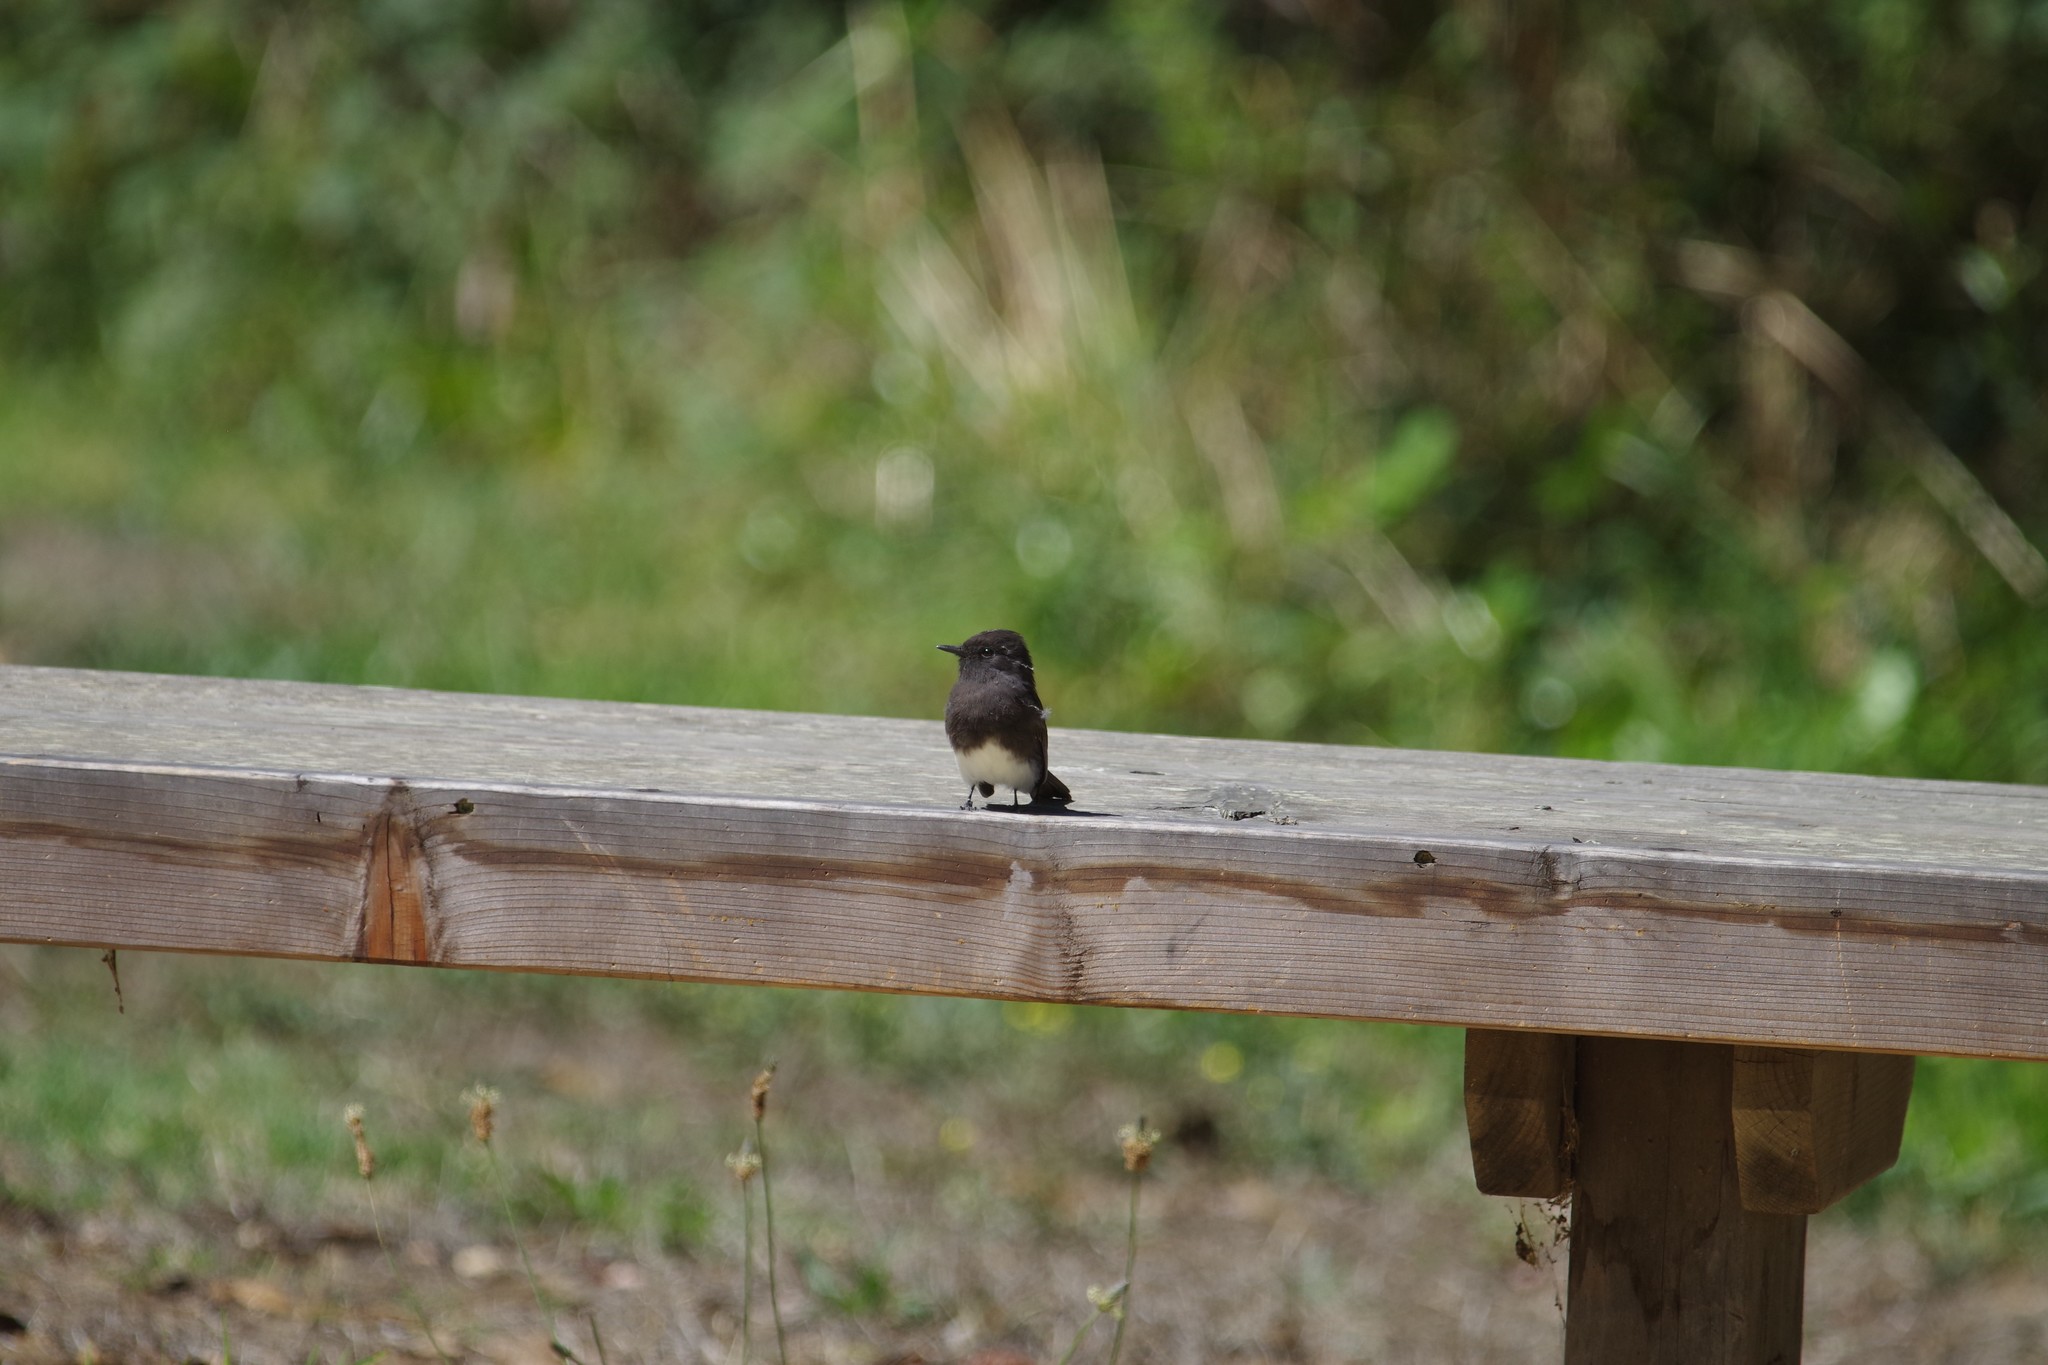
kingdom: Animalia
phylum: Chordata
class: Aves
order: Passeriformes
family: Tyrannidae
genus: Sayornis
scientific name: Sayornis nigricans
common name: Black phoebe
